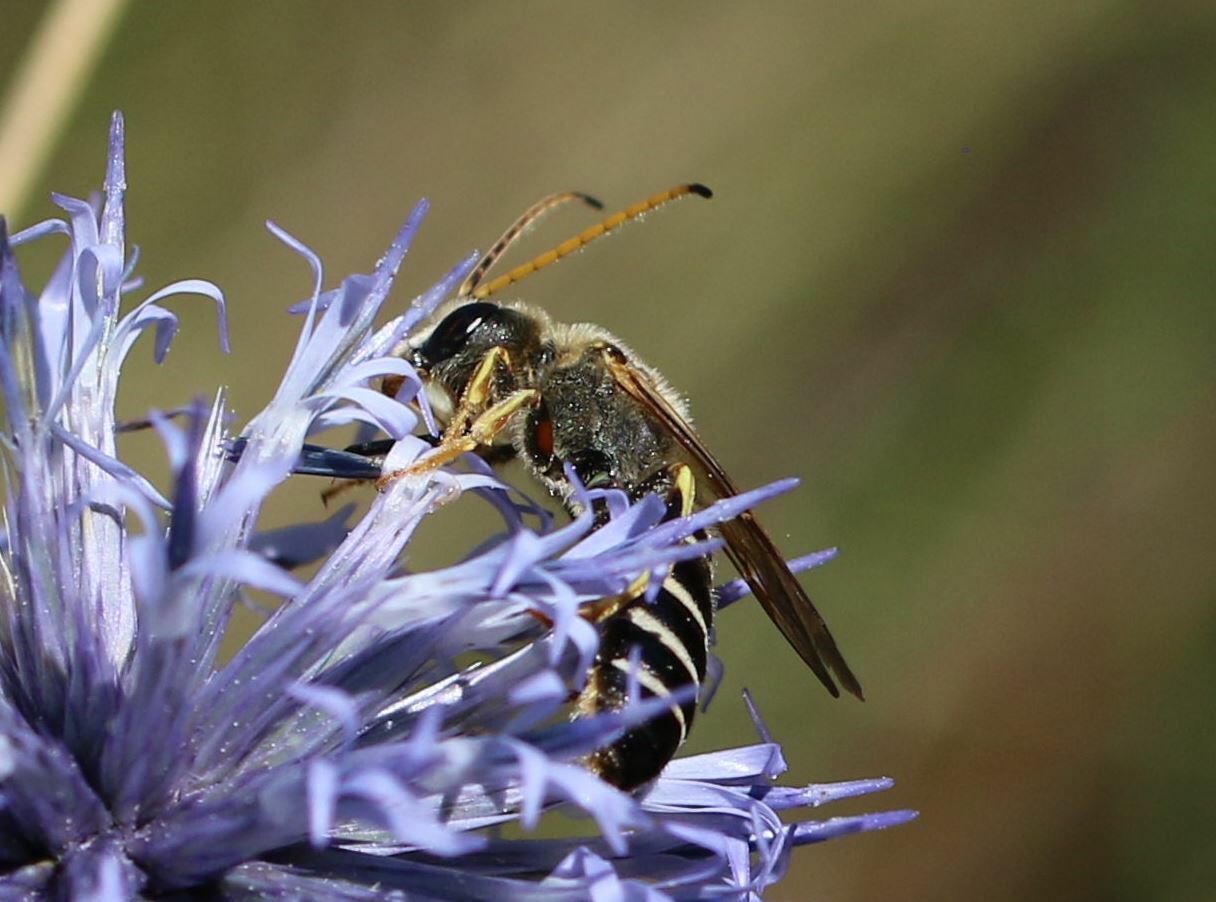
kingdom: Animalia
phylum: Arthropoda
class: Insecta
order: Hymenoptera
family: Halictidae
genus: Halictus
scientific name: Halictus brunnescens
